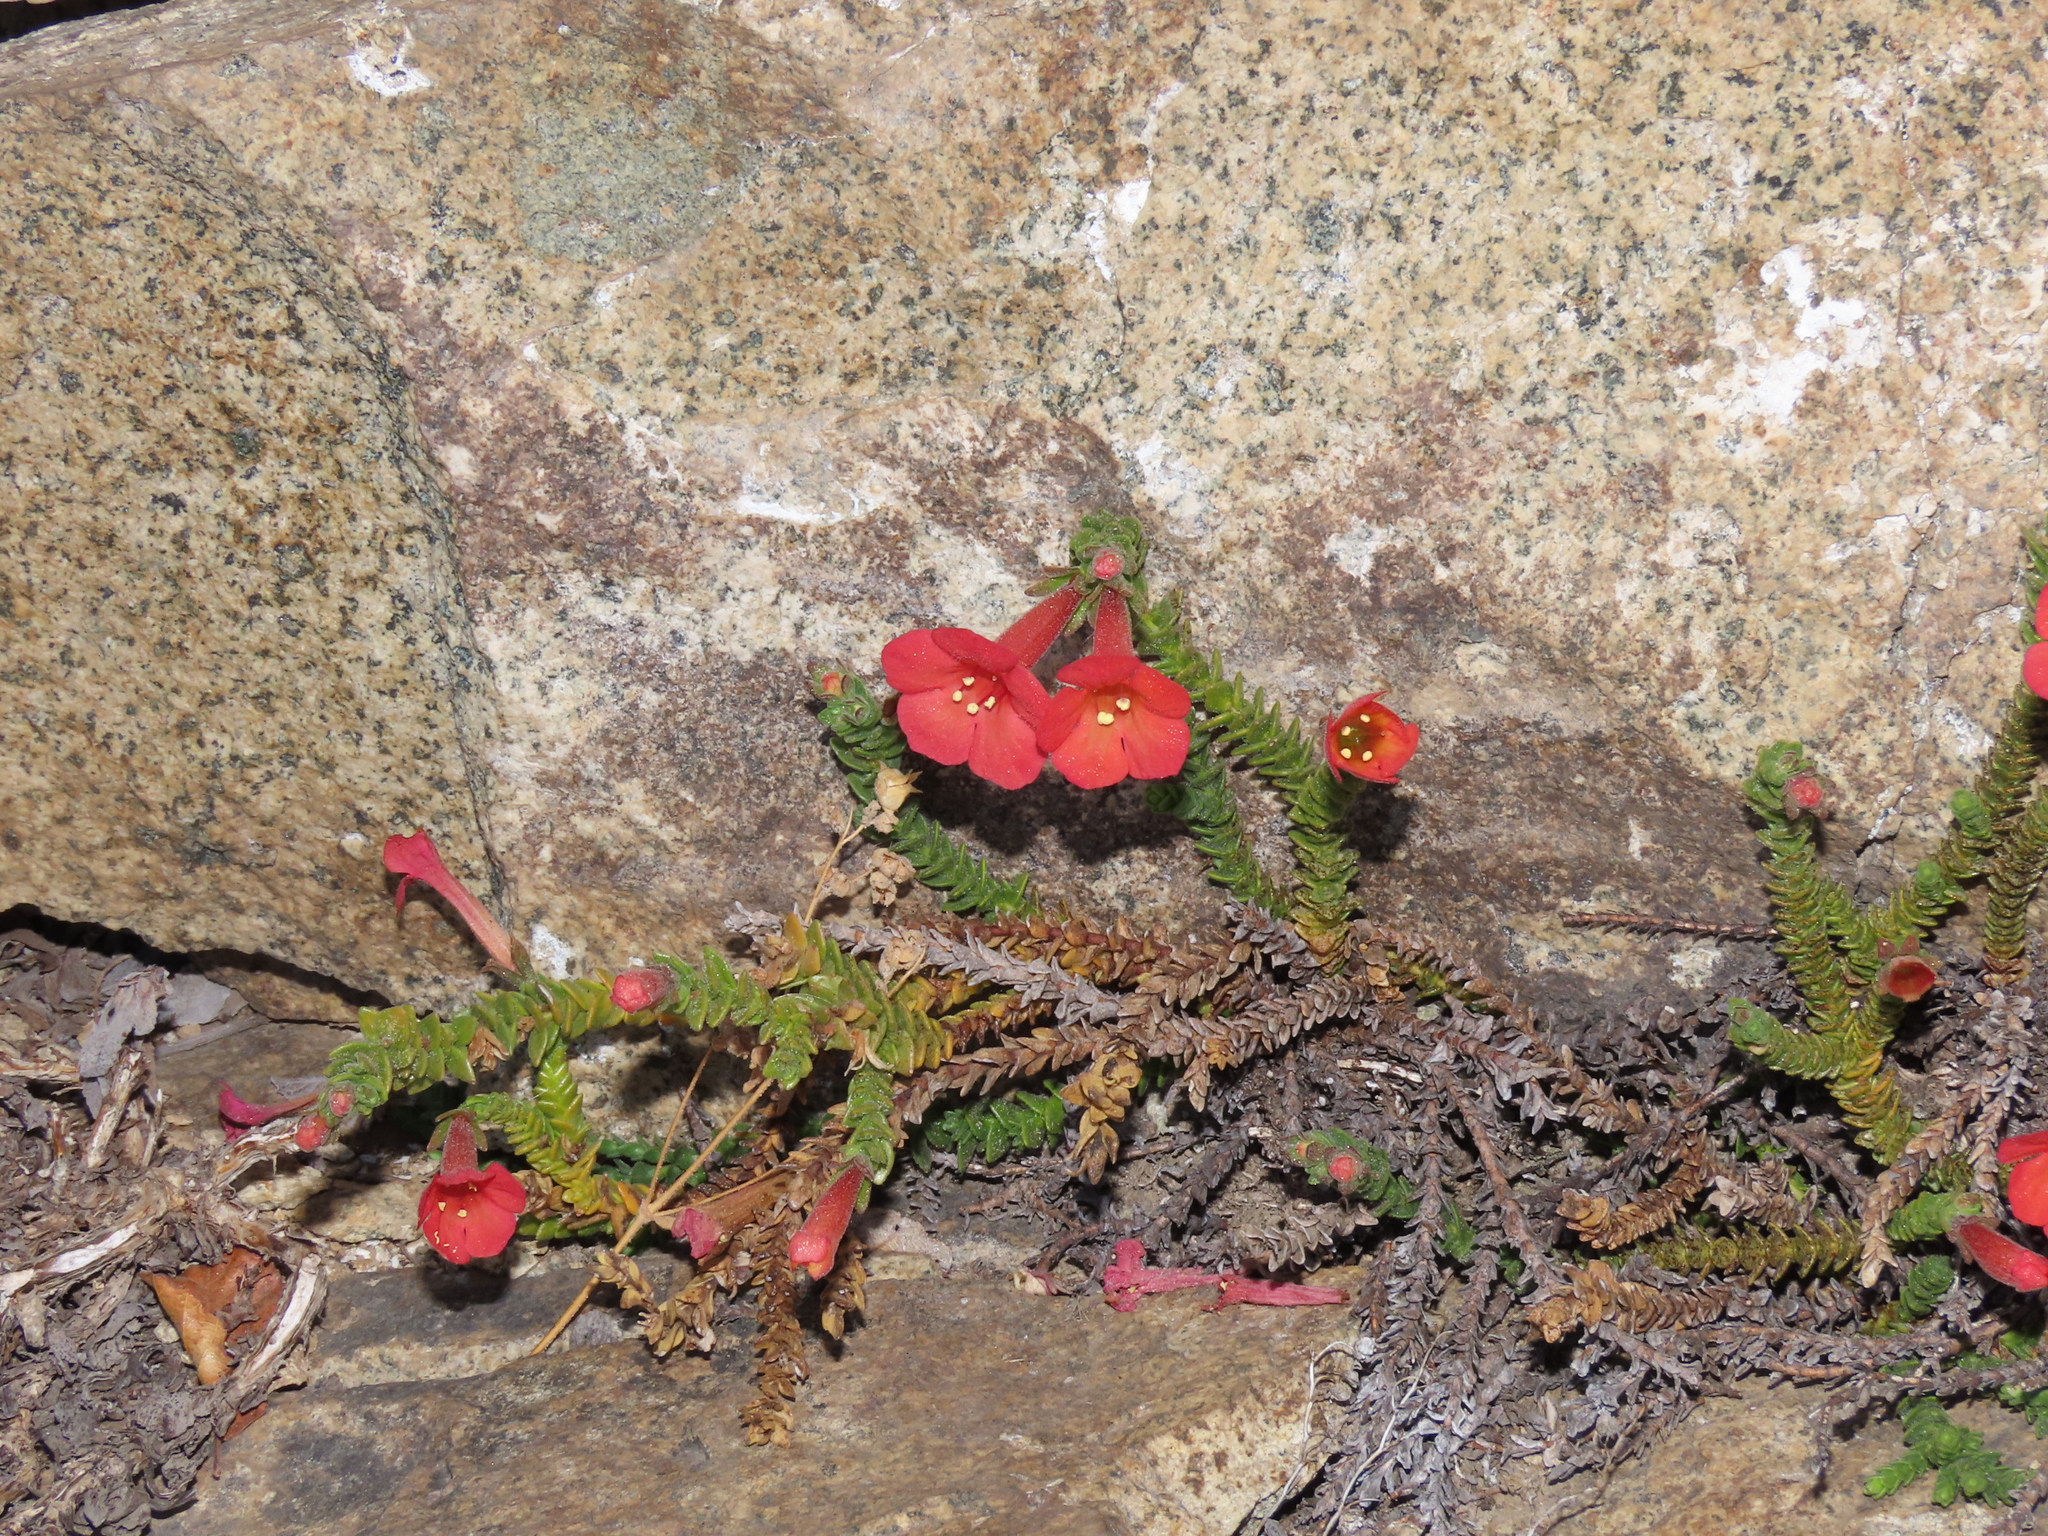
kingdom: Plantae
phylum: Tracheophyta
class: Magnoliopsida
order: Lamiales
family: Plantaginaceae
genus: Ourisia
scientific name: Ourisia polyantha
